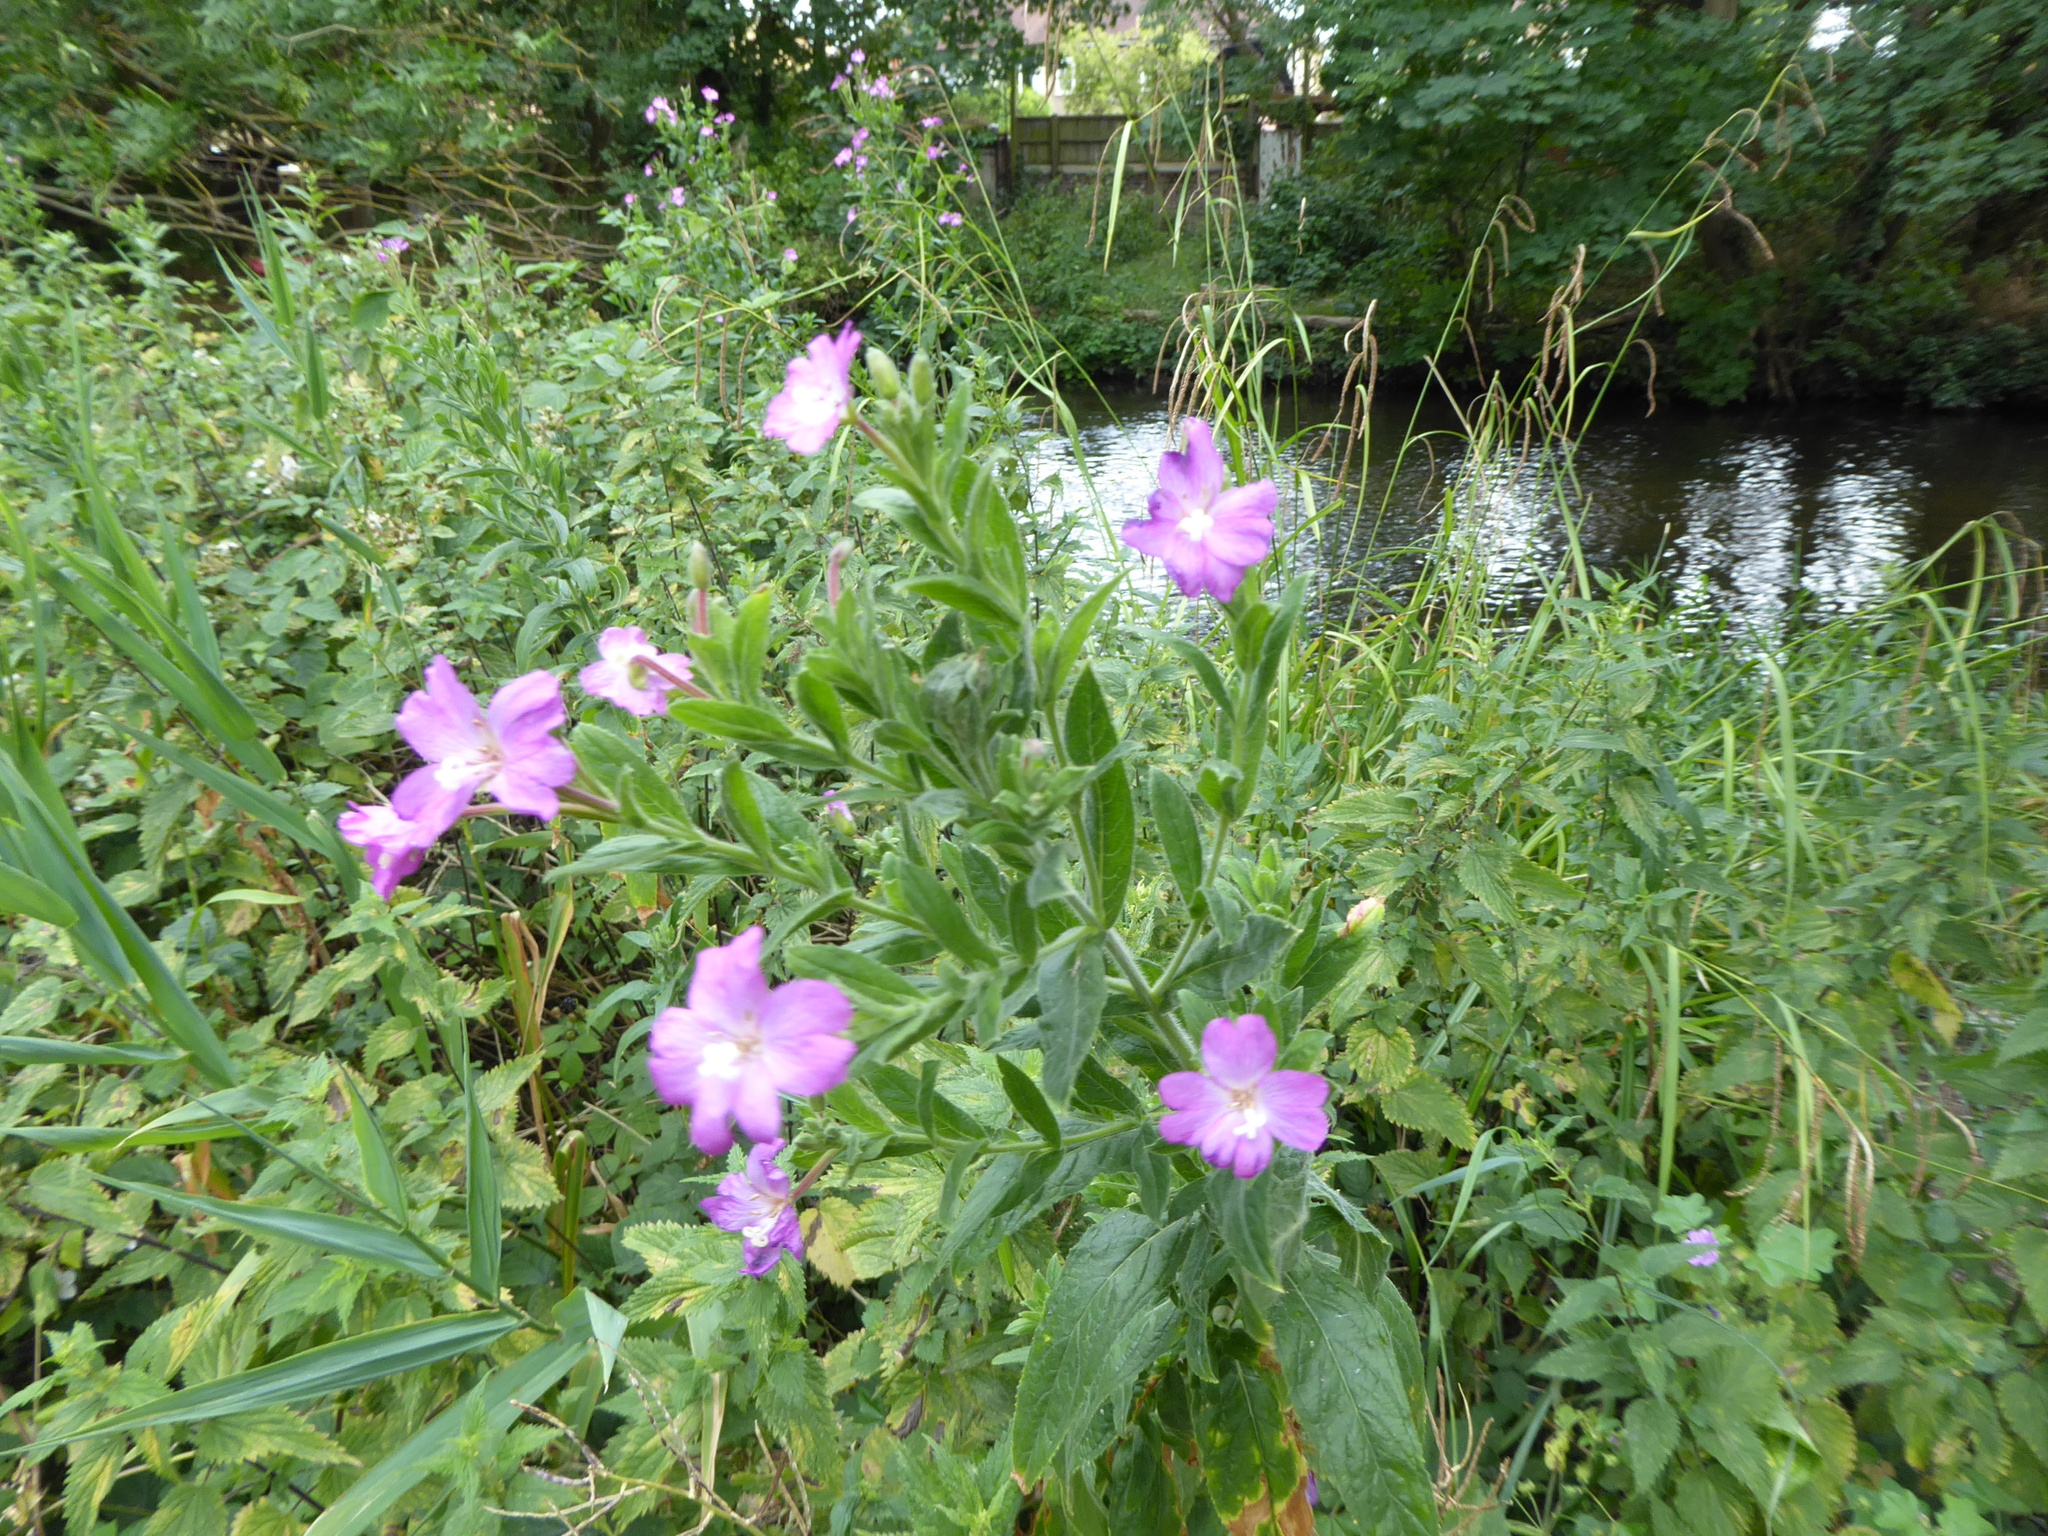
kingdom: Plantae
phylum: Tracheophyta
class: Magnoliopsida
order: Myrtales
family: Onagraceae
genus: Epilobium
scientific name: Epilobium hirsutum
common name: Great willowherb
